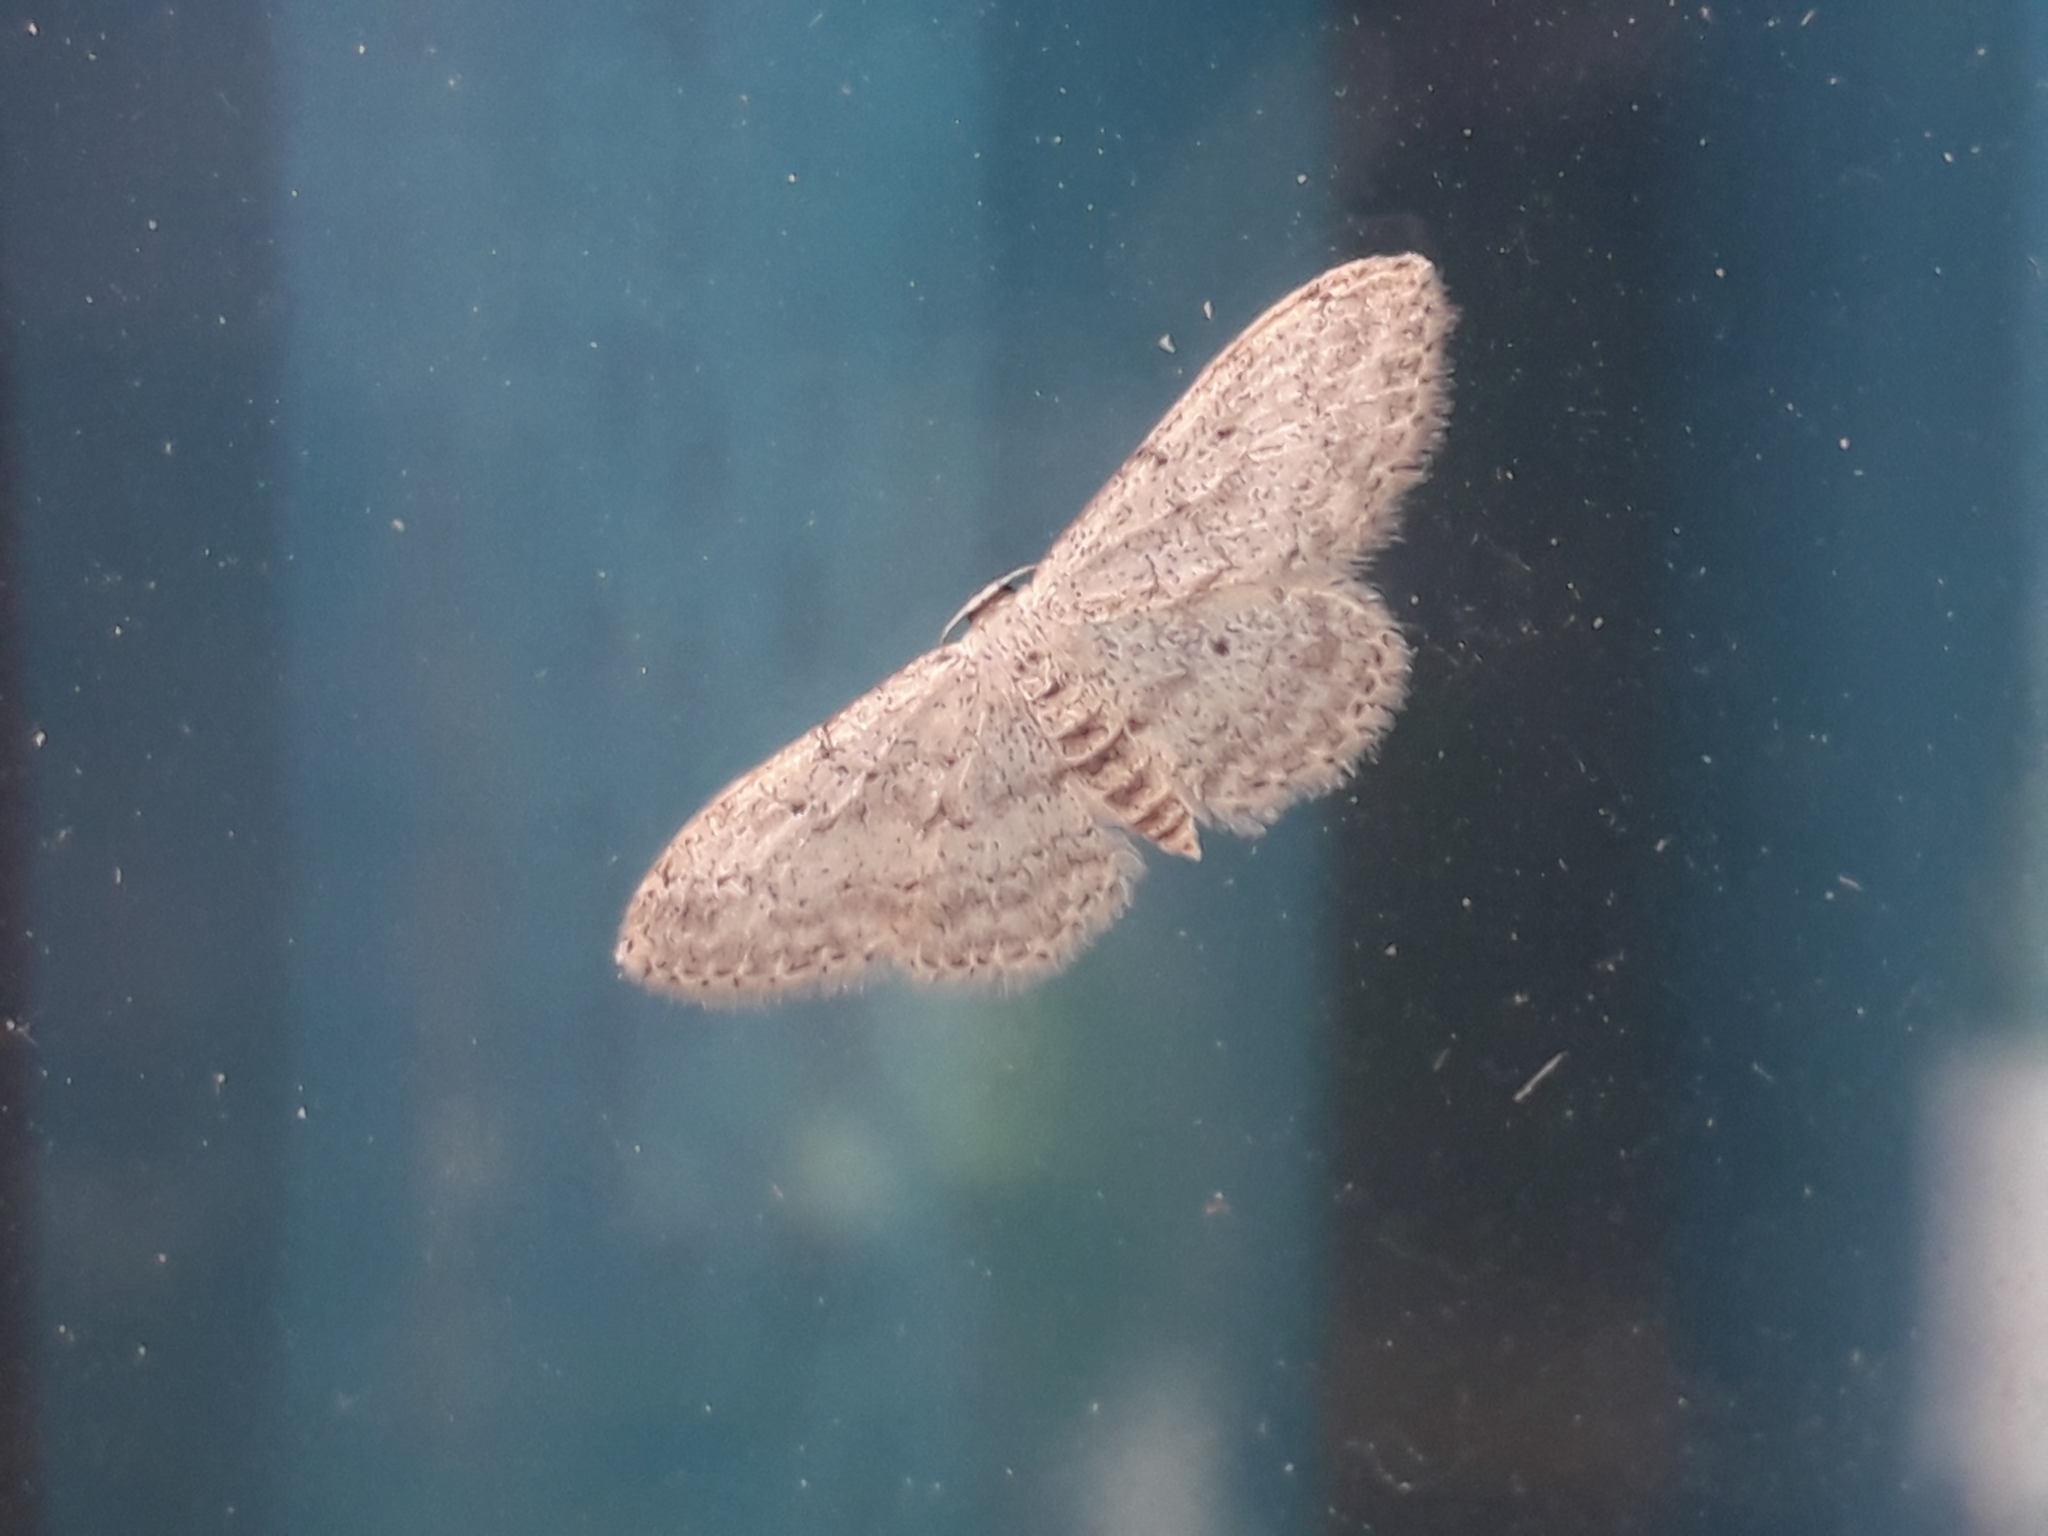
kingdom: Animalia
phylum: Arthropoda
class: Insecta
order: Lepidoptera
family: Geometridae
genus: Idaea
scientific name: Idaea seriata
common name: Small dusty wave
